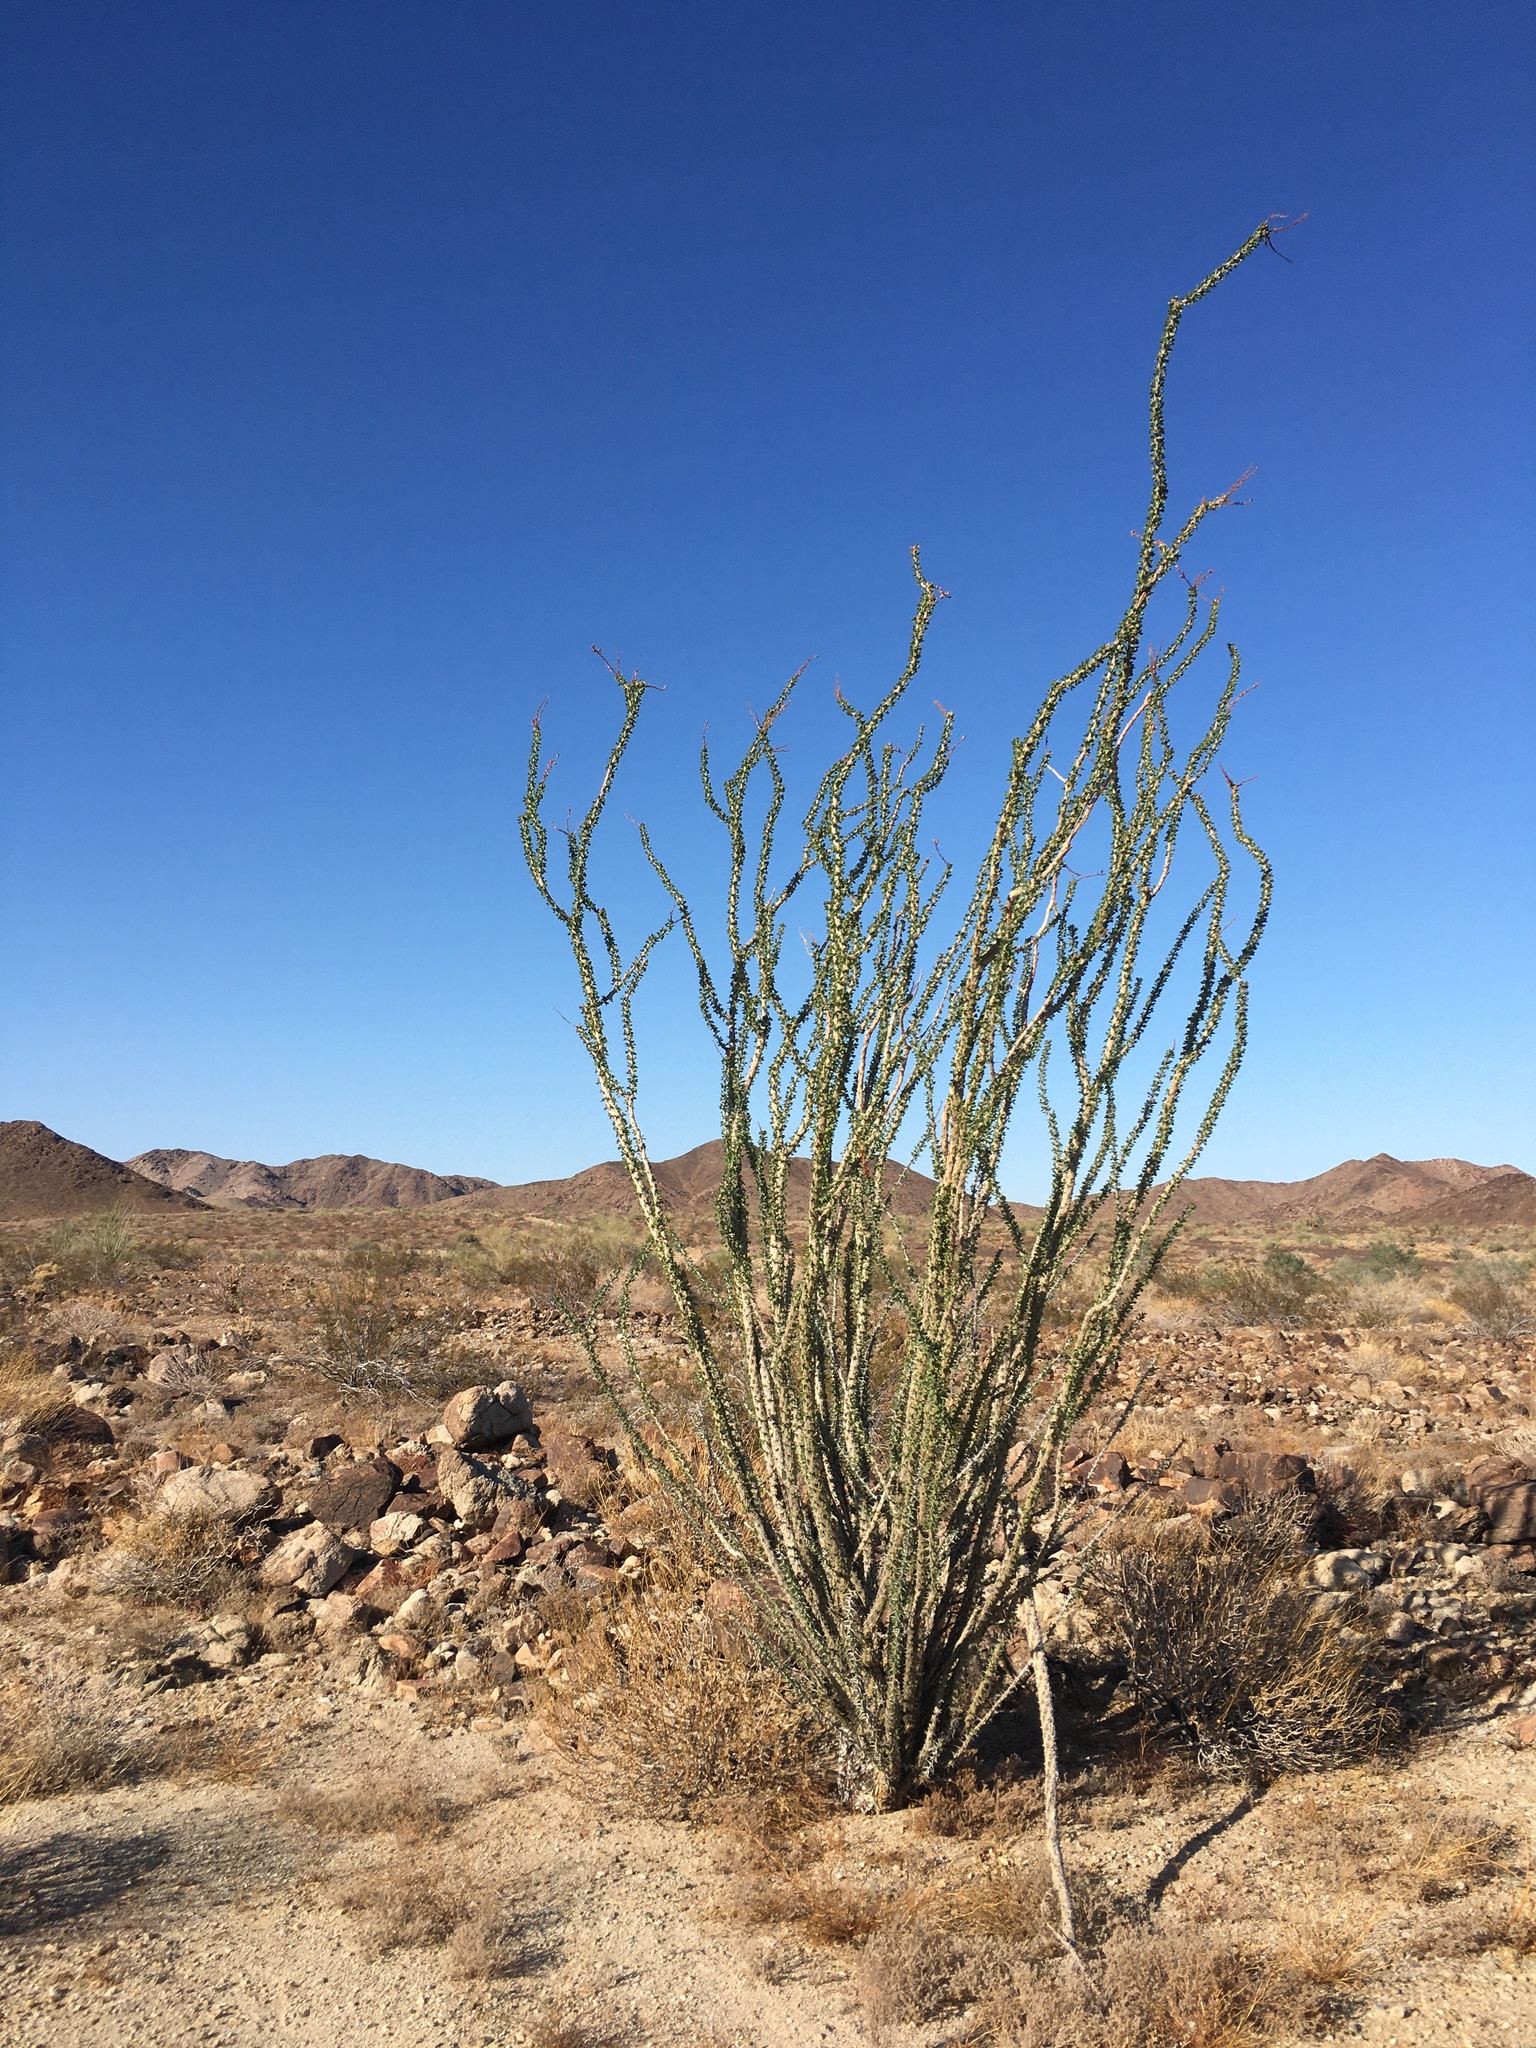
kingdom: Plantae
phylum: Tracheophyta
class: Magnoliopsida
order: Ericales
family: Fouquieriaceae
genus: Fouquieria
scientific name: Fouquieria splendens
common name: Vine-cactus
